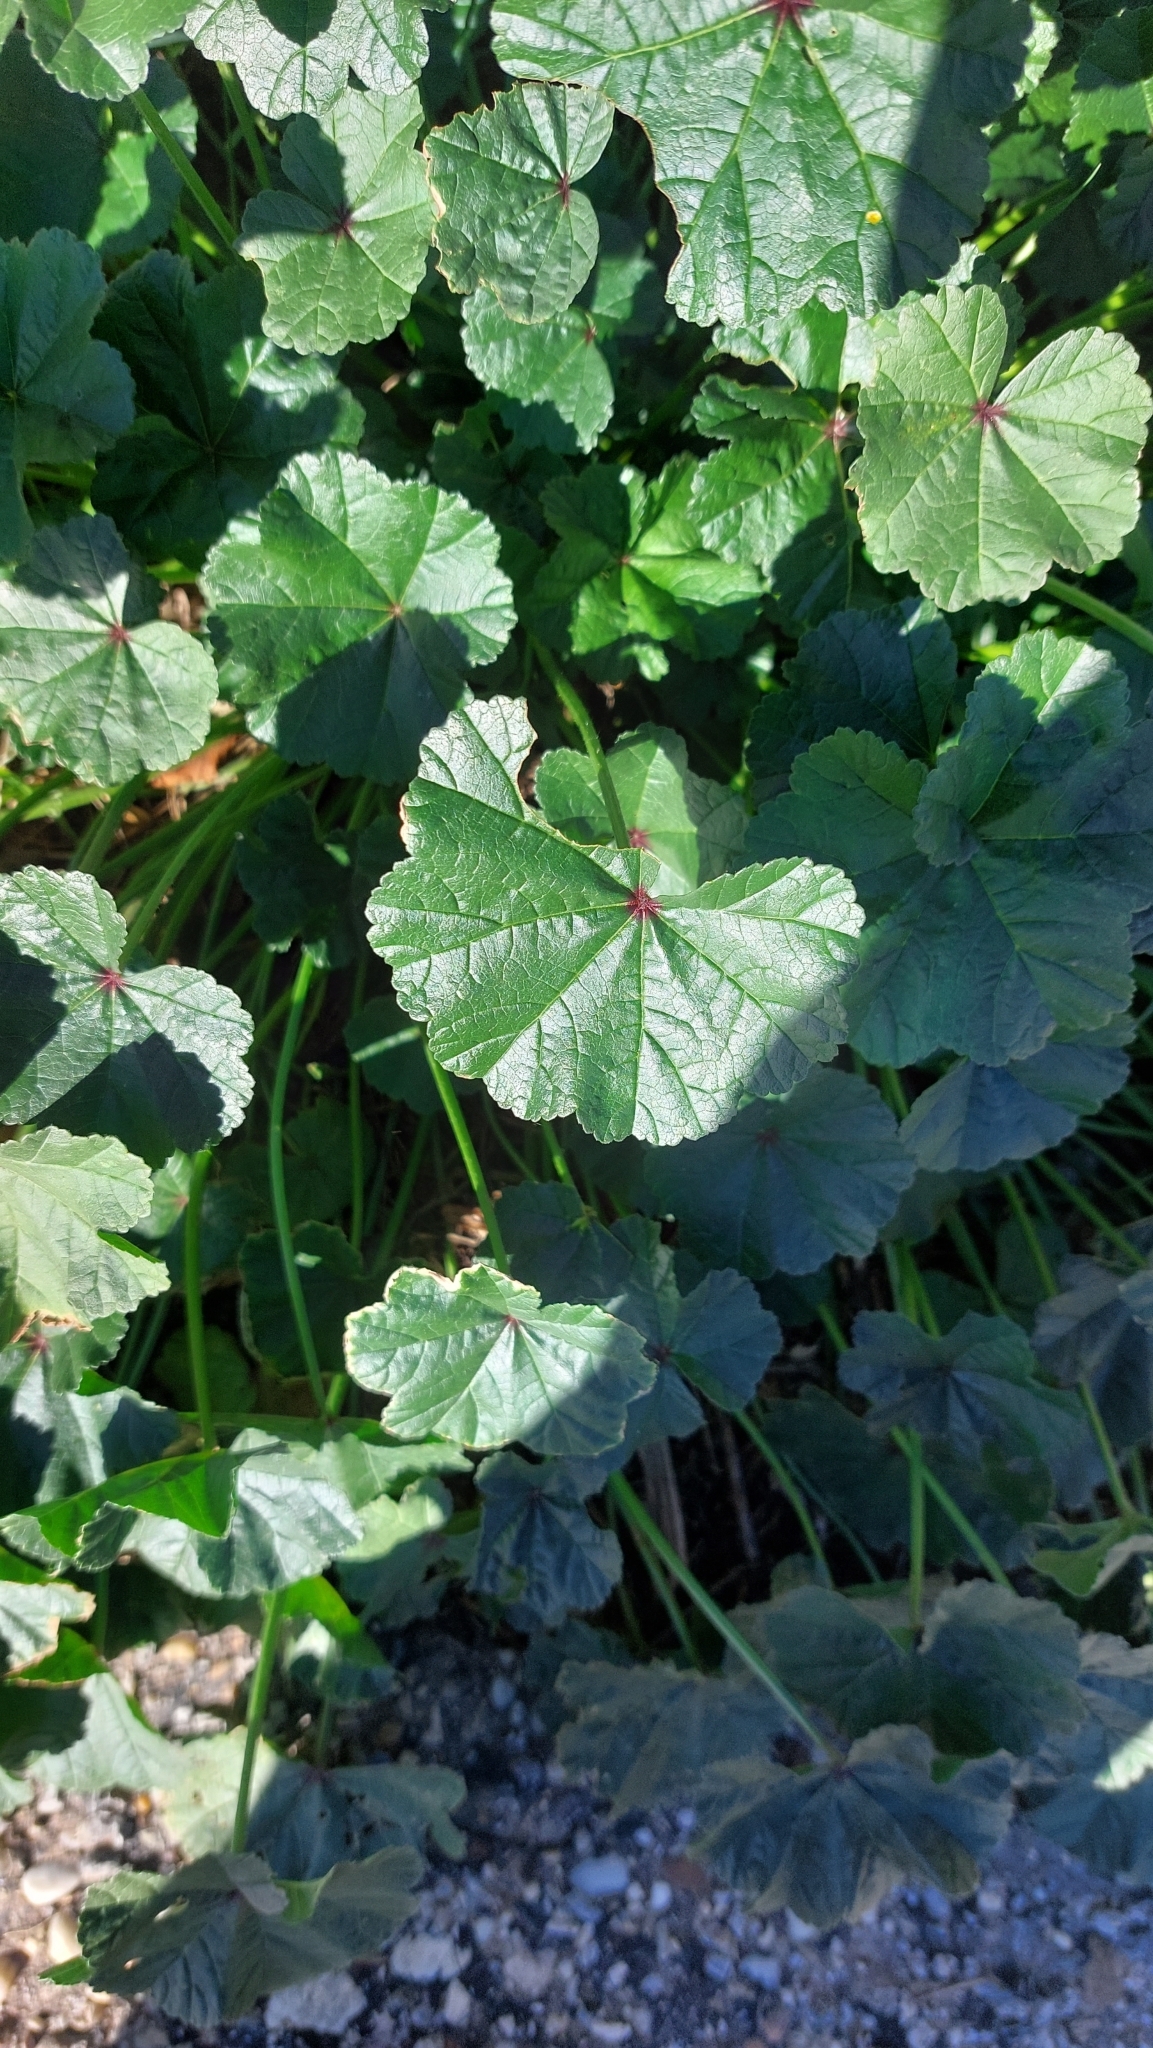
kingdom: Plantae
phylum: Tracheophyta
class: Magnoliopsida
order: Malvales
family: Malvaceae
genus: Malva
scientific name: Malva sylvestris
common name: Common mallow
